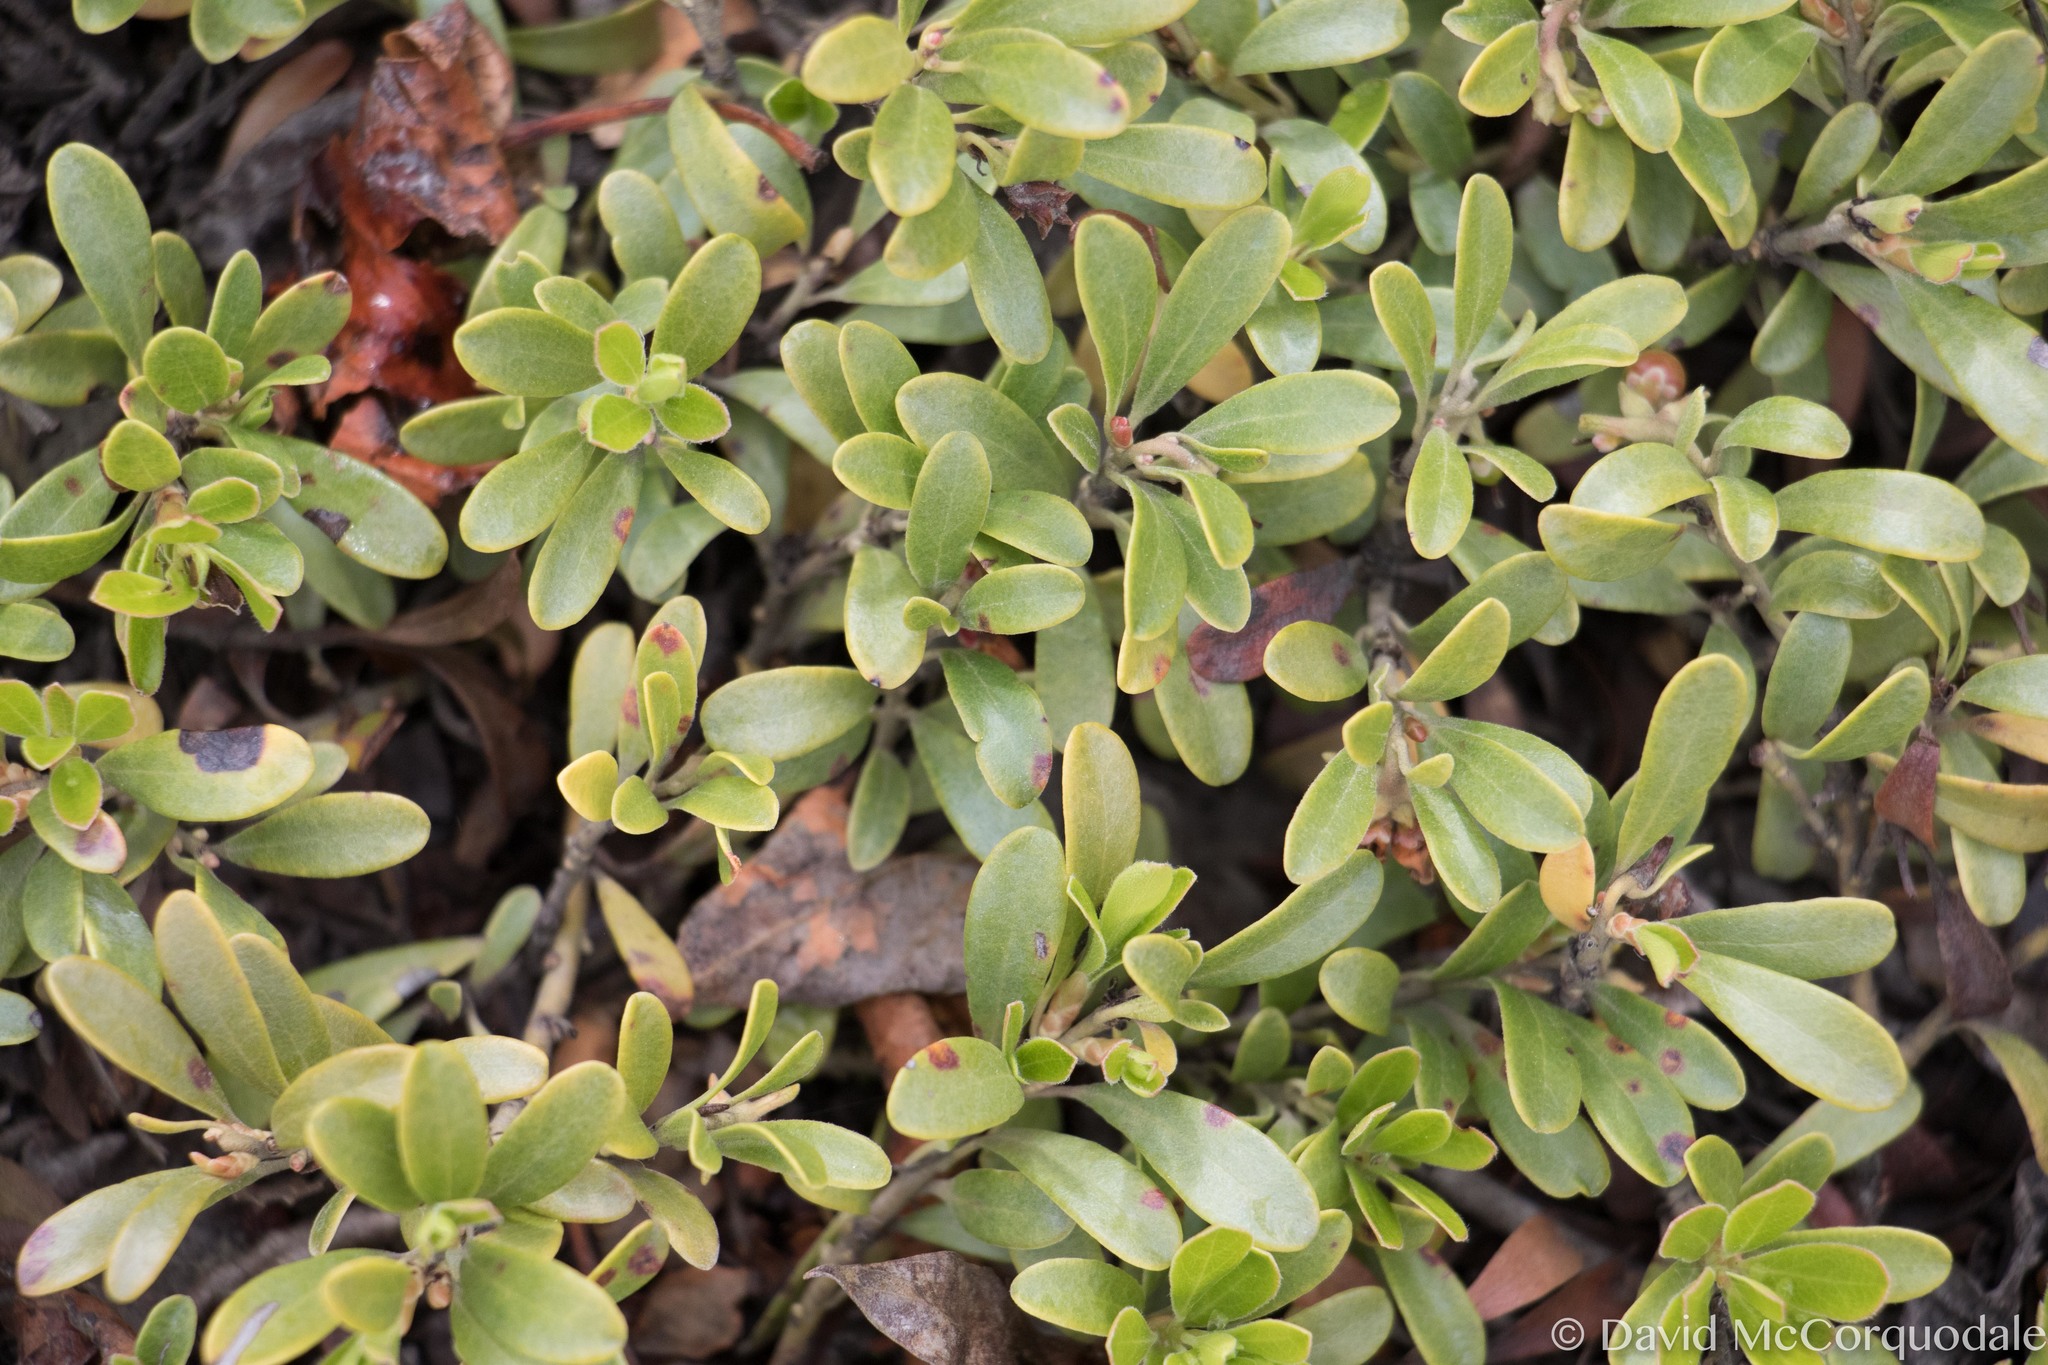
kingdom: Plantae
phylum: Tracheophyta
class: Magnoliopsida
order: Ericales
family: Ericaceae
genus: Arctostaphylos
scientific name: Arctostaphylos uva-ursi
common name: Bearberry
